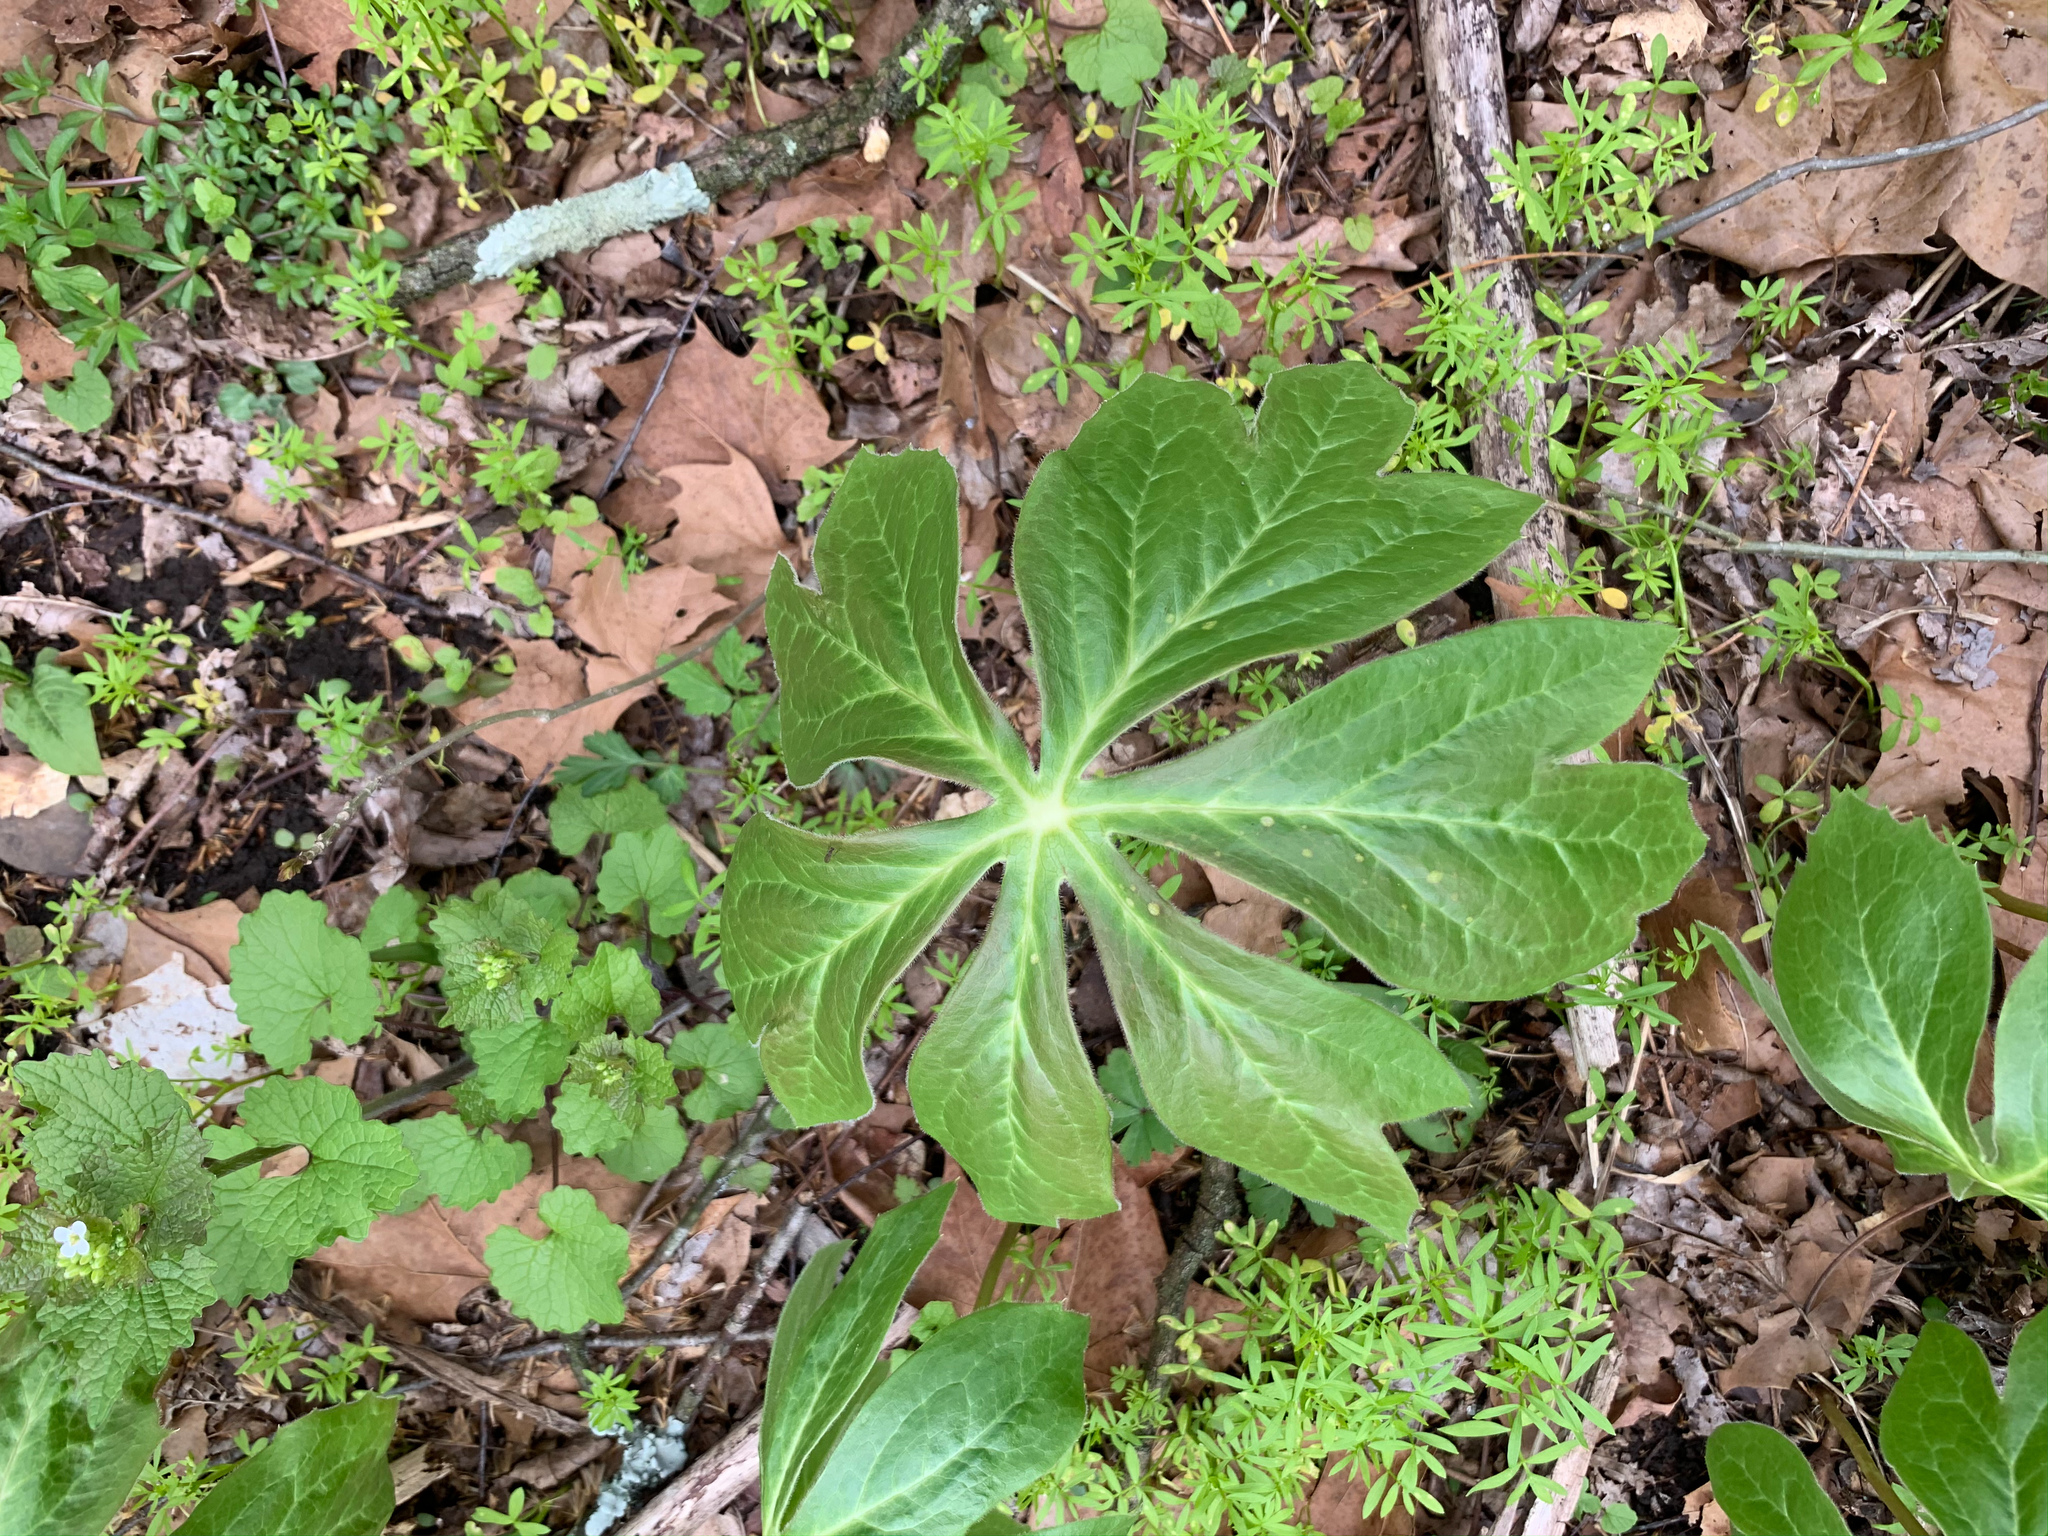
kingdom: Plantae
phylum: Tracheophyta
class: Magnoliopsida
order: Ranunculales
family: Berberidaceae
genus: Podophyllum
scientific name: Podophyllum peltatum
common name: Wild mandrake
